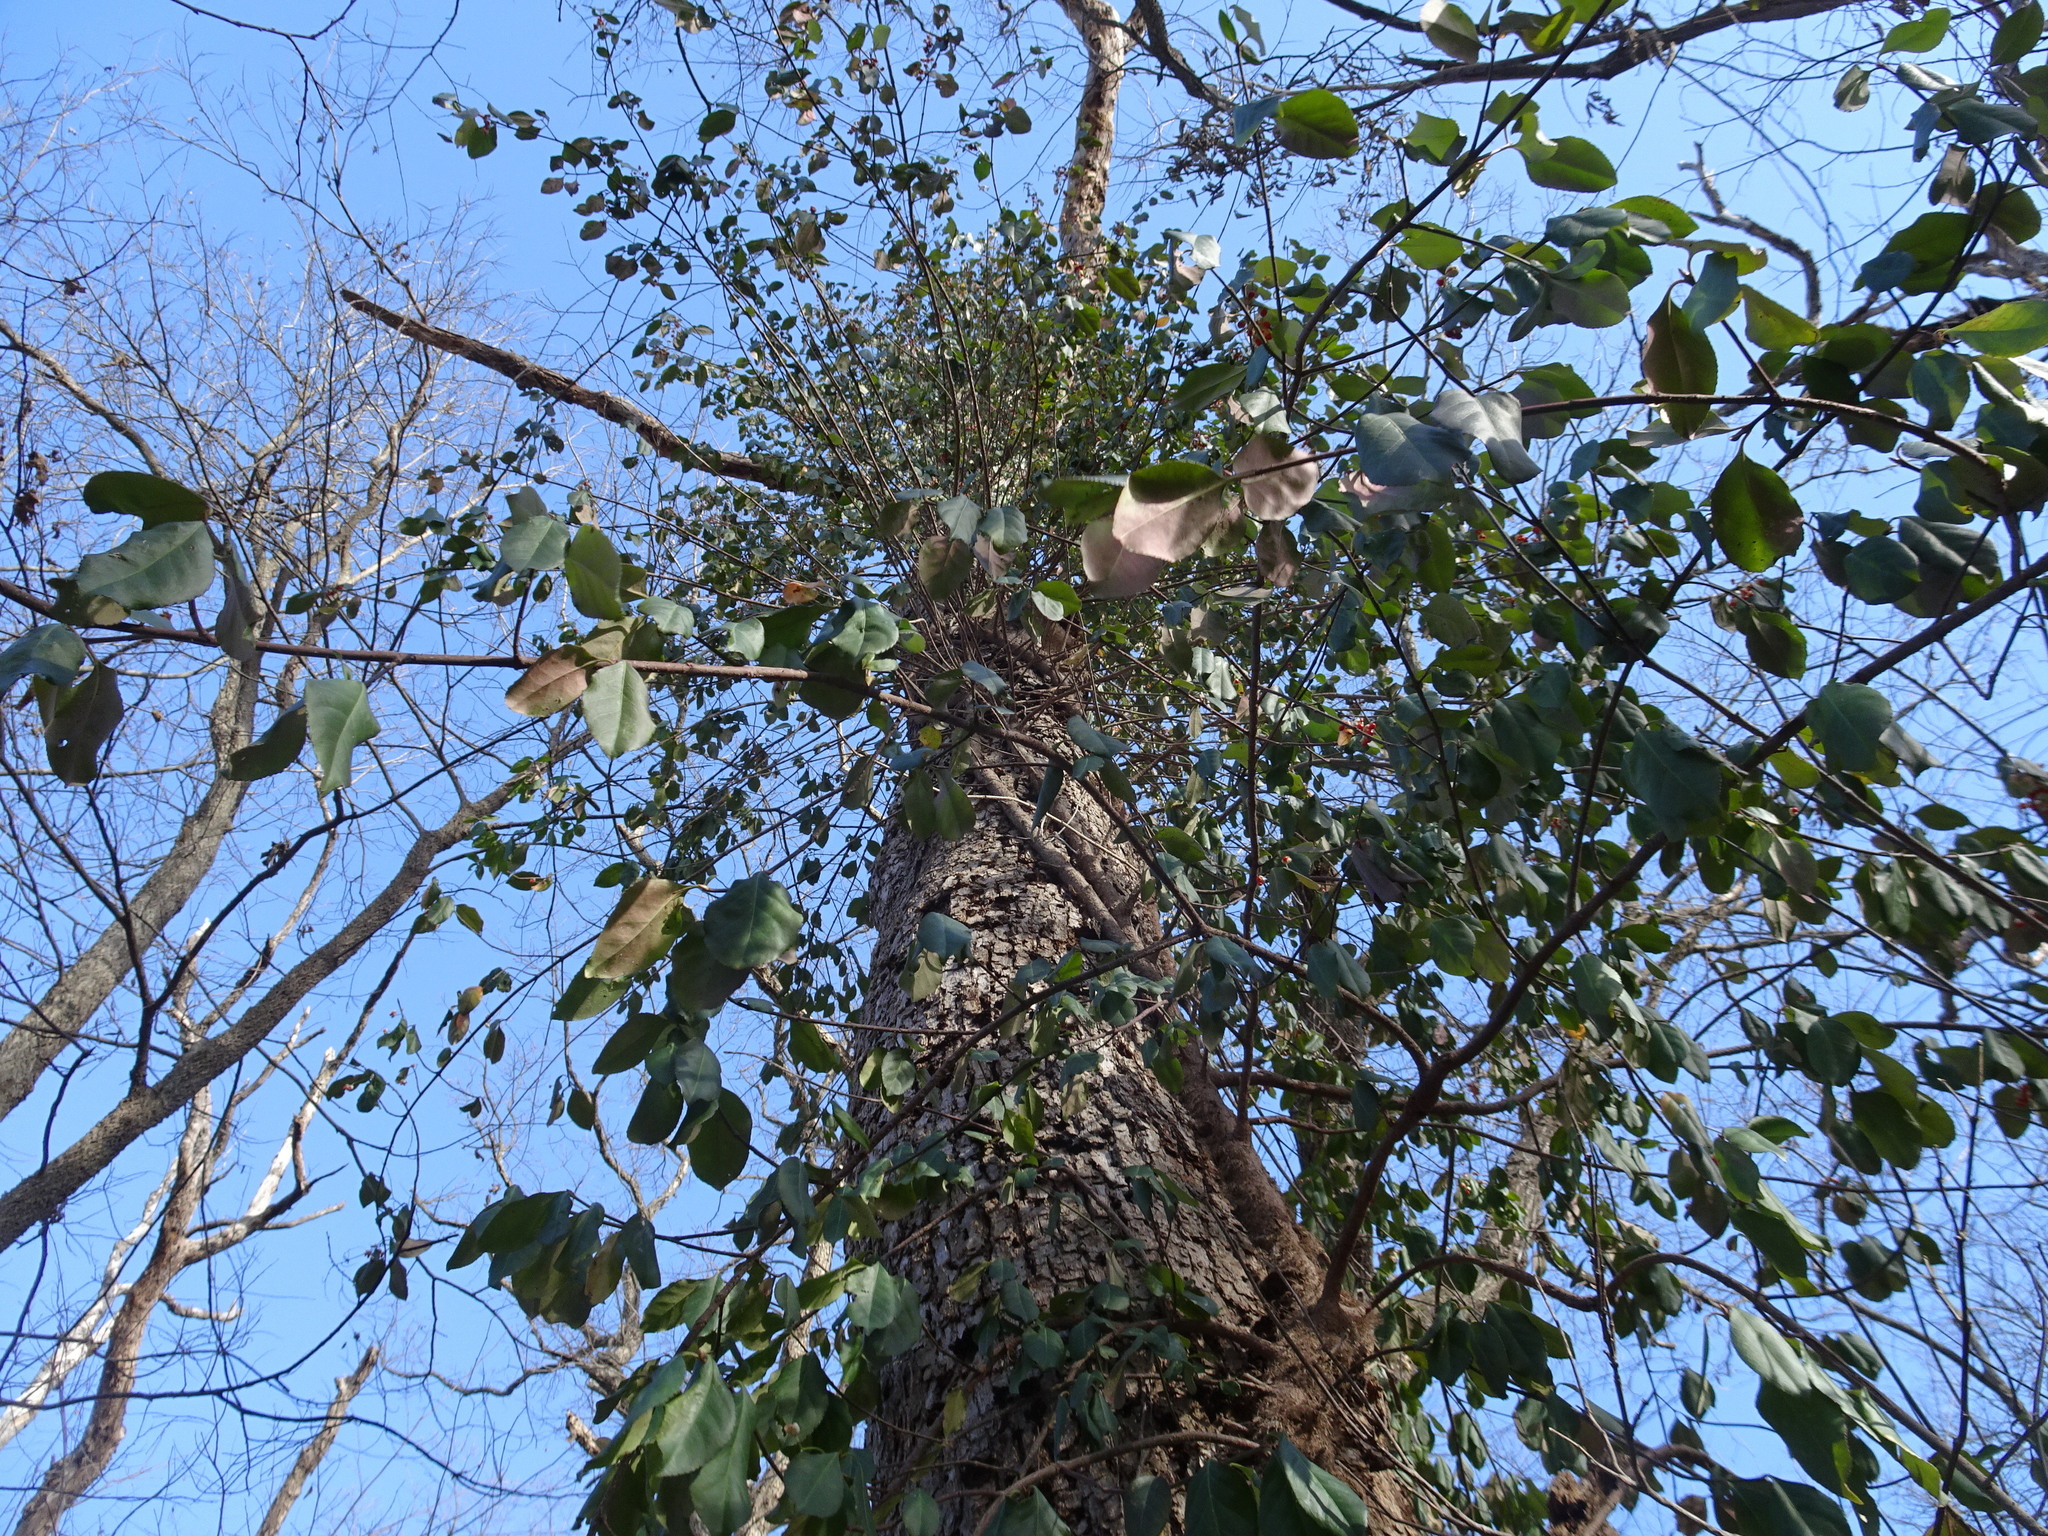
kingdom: Plantae
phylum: Tracheophyta
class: Magnoliopsida
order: Celastrales
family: Celastraceae
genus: Euonymus
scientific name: Euonymus fortunei
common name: Climbing euonymus
